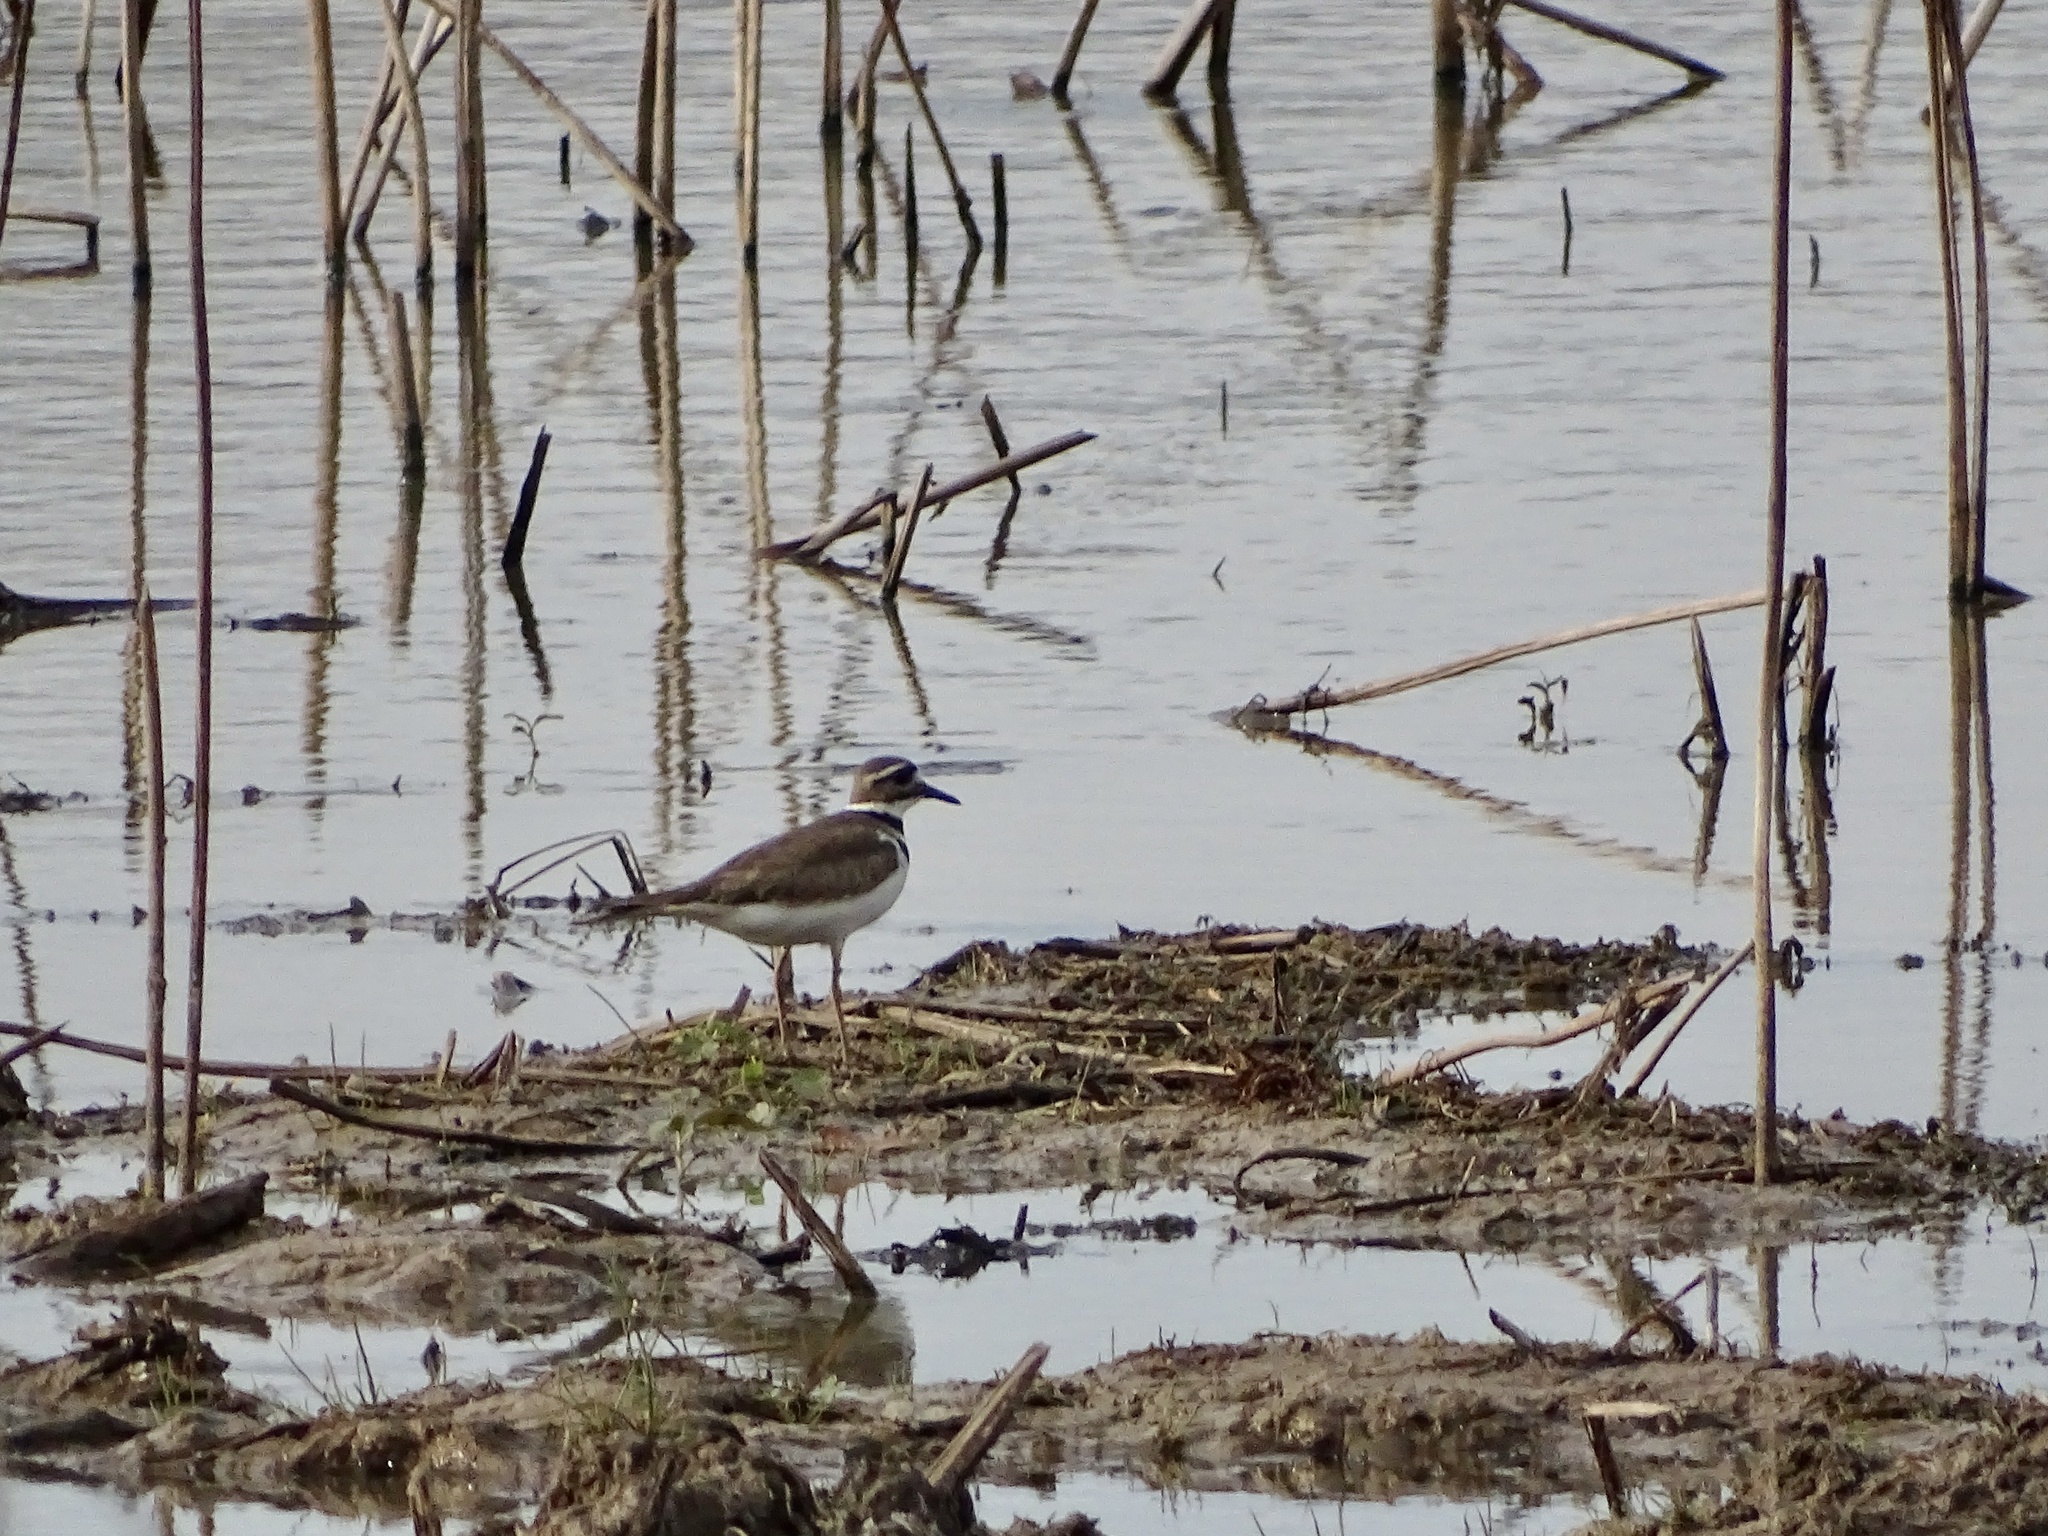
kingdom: Animalia
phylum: Chordata
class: Aves
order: Charadriiformes
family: Charadriidae
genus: Charadrius
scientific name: Charadrius vociferus
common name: Killdeer
